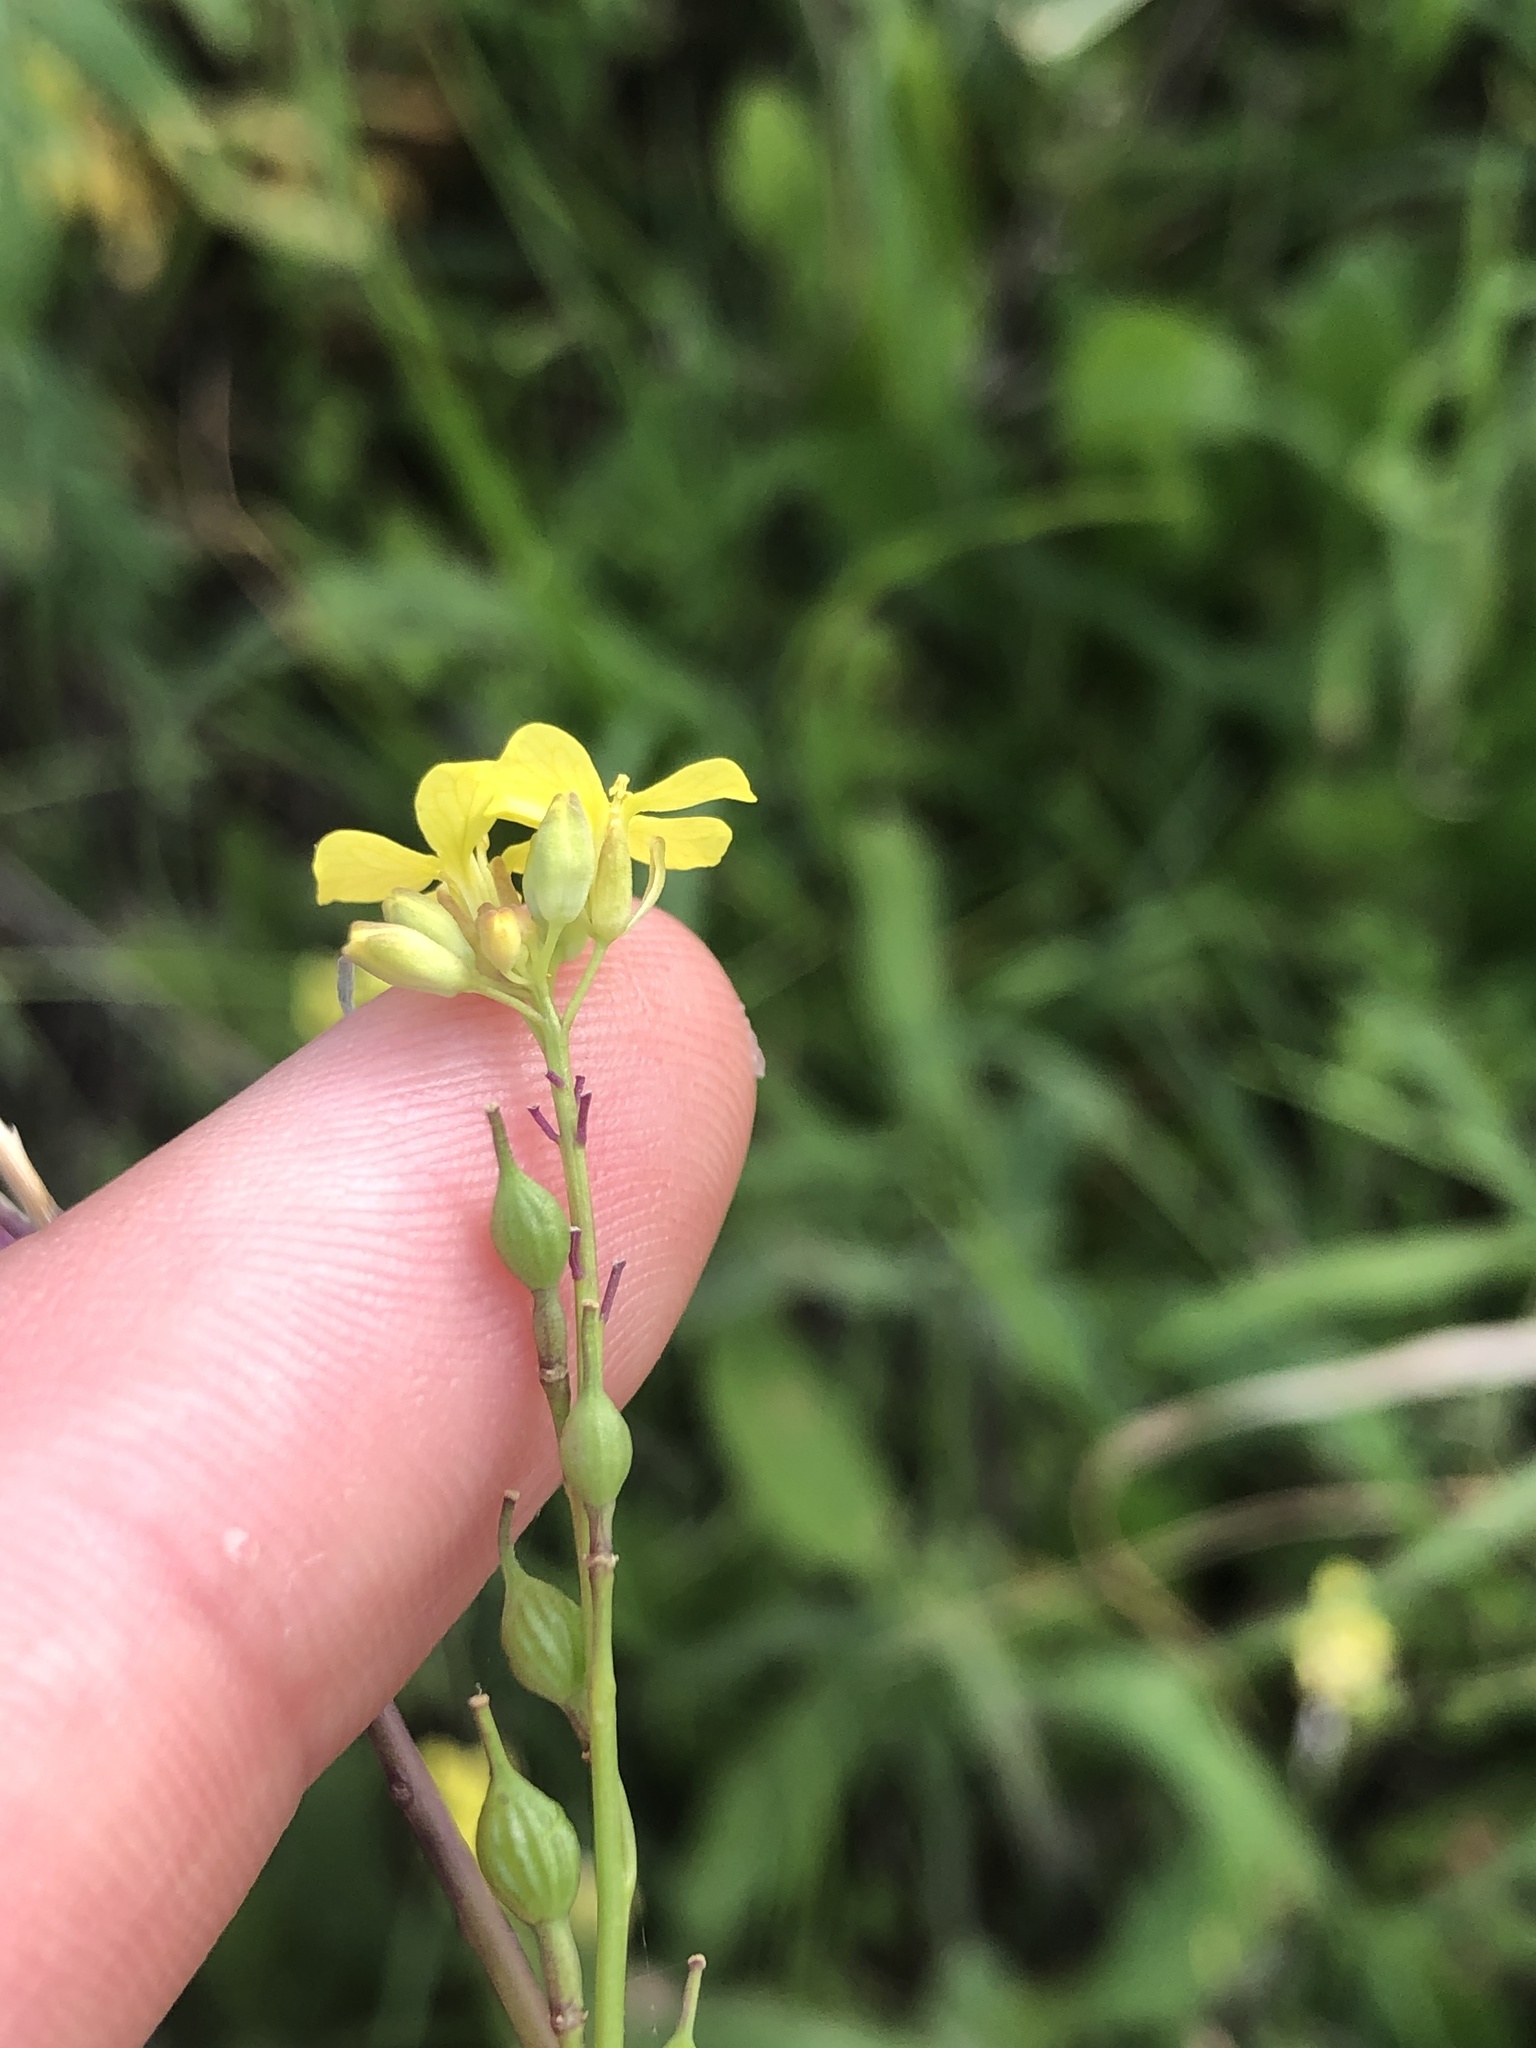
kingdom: Plantae
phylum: Tracheophyta
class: Magnoliopsida
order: Brassicales
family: Brassicaceae
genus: Rapistrum
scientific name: Rapistrum rugosum
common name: Annual bastardcabbage
